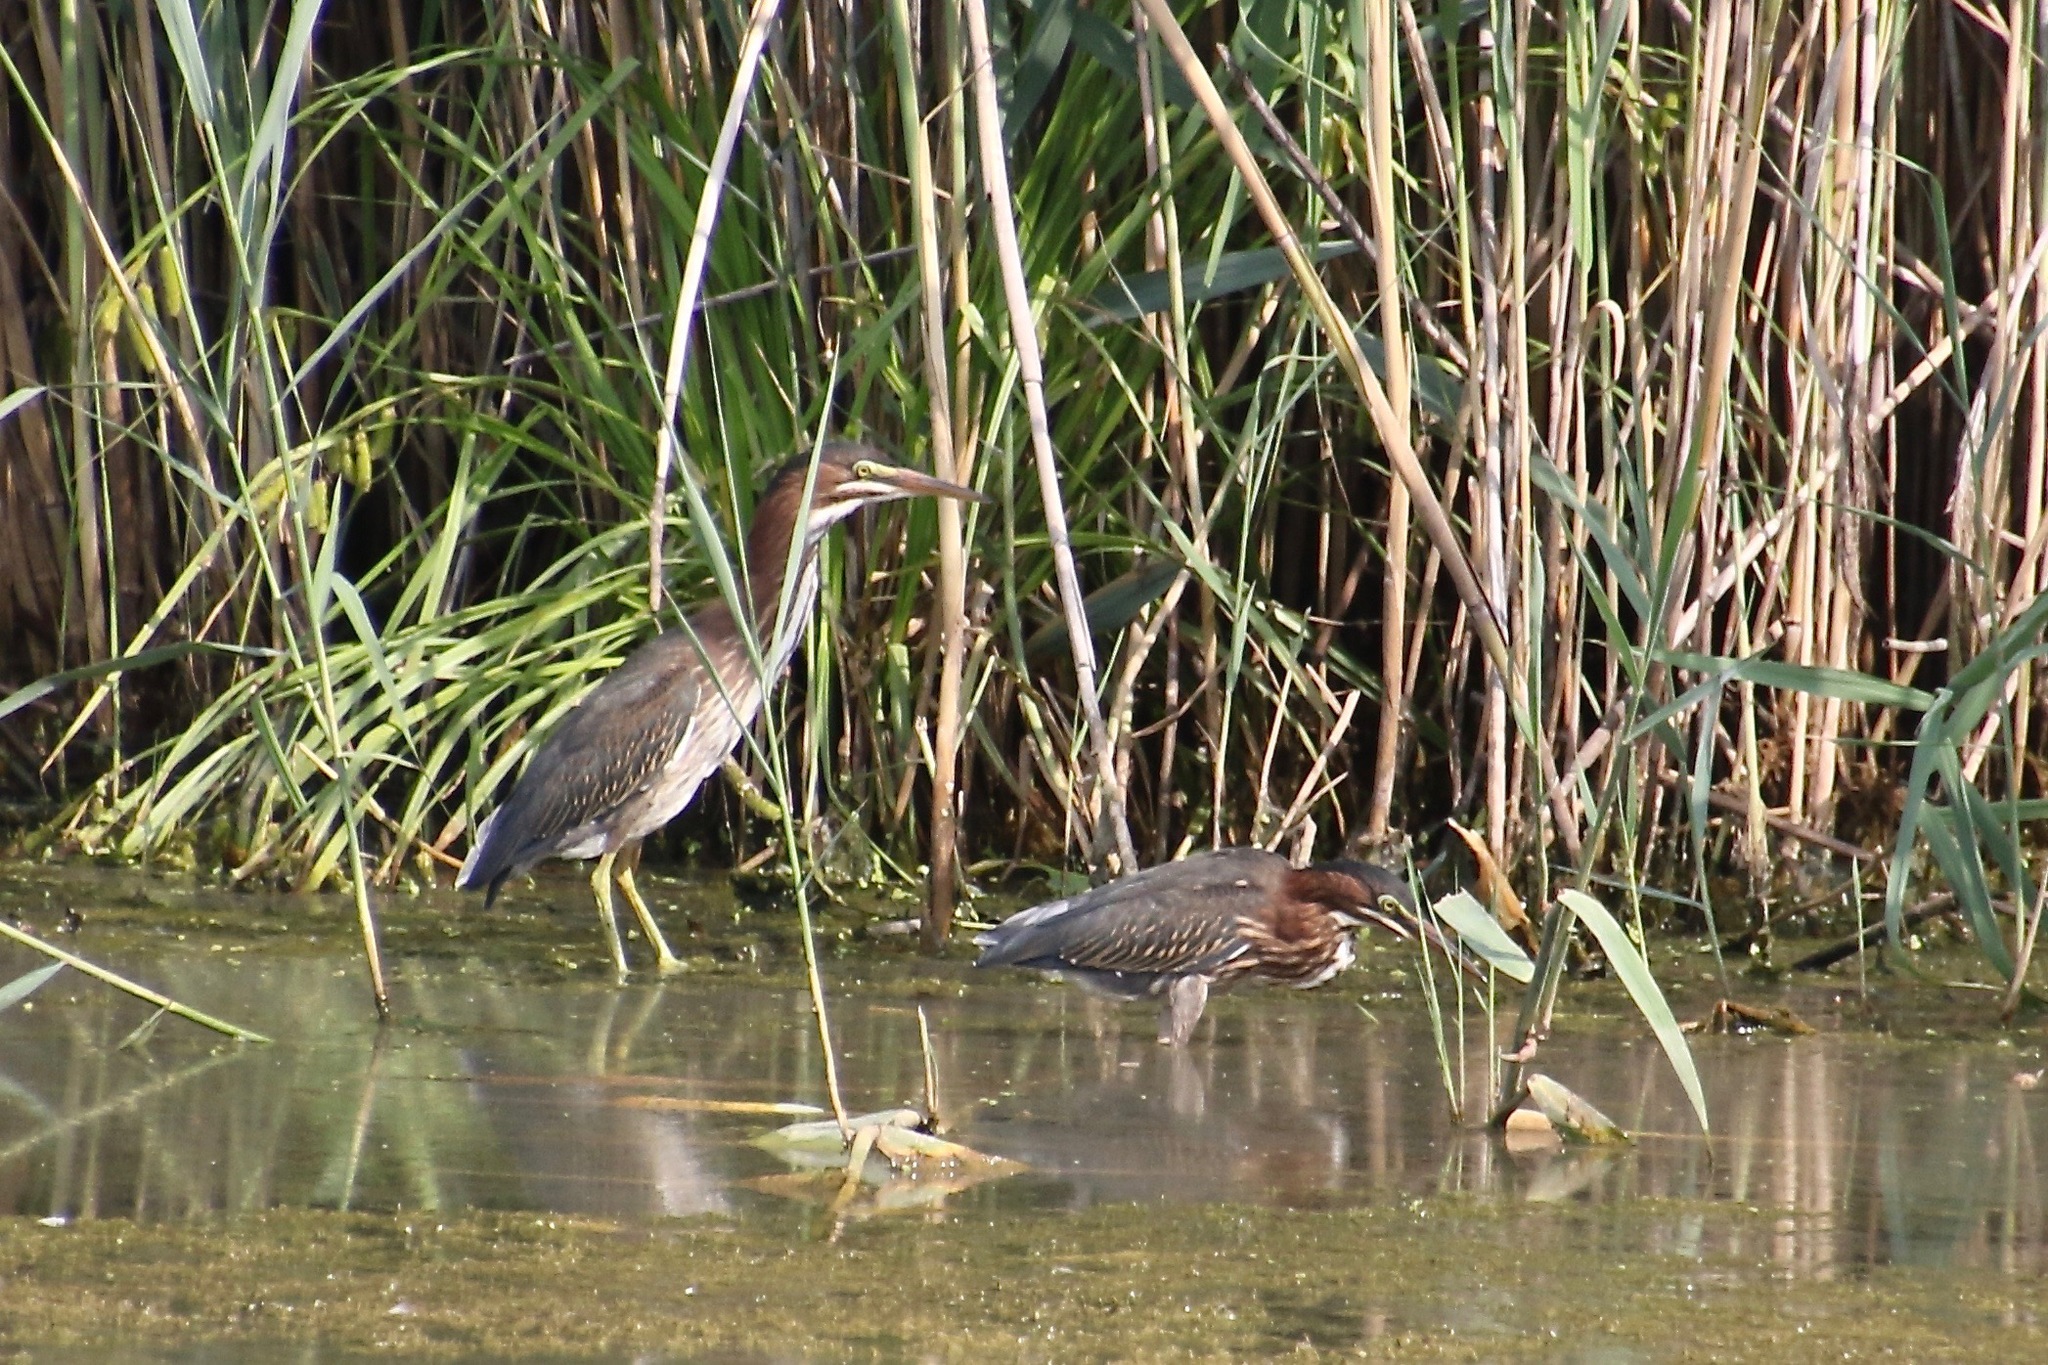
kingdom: Animalia
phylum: Chordata
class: Aves
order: Pelecaniformes
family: Ardeidae
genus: Butorides
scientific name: Butorides virescens
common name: Green heron
